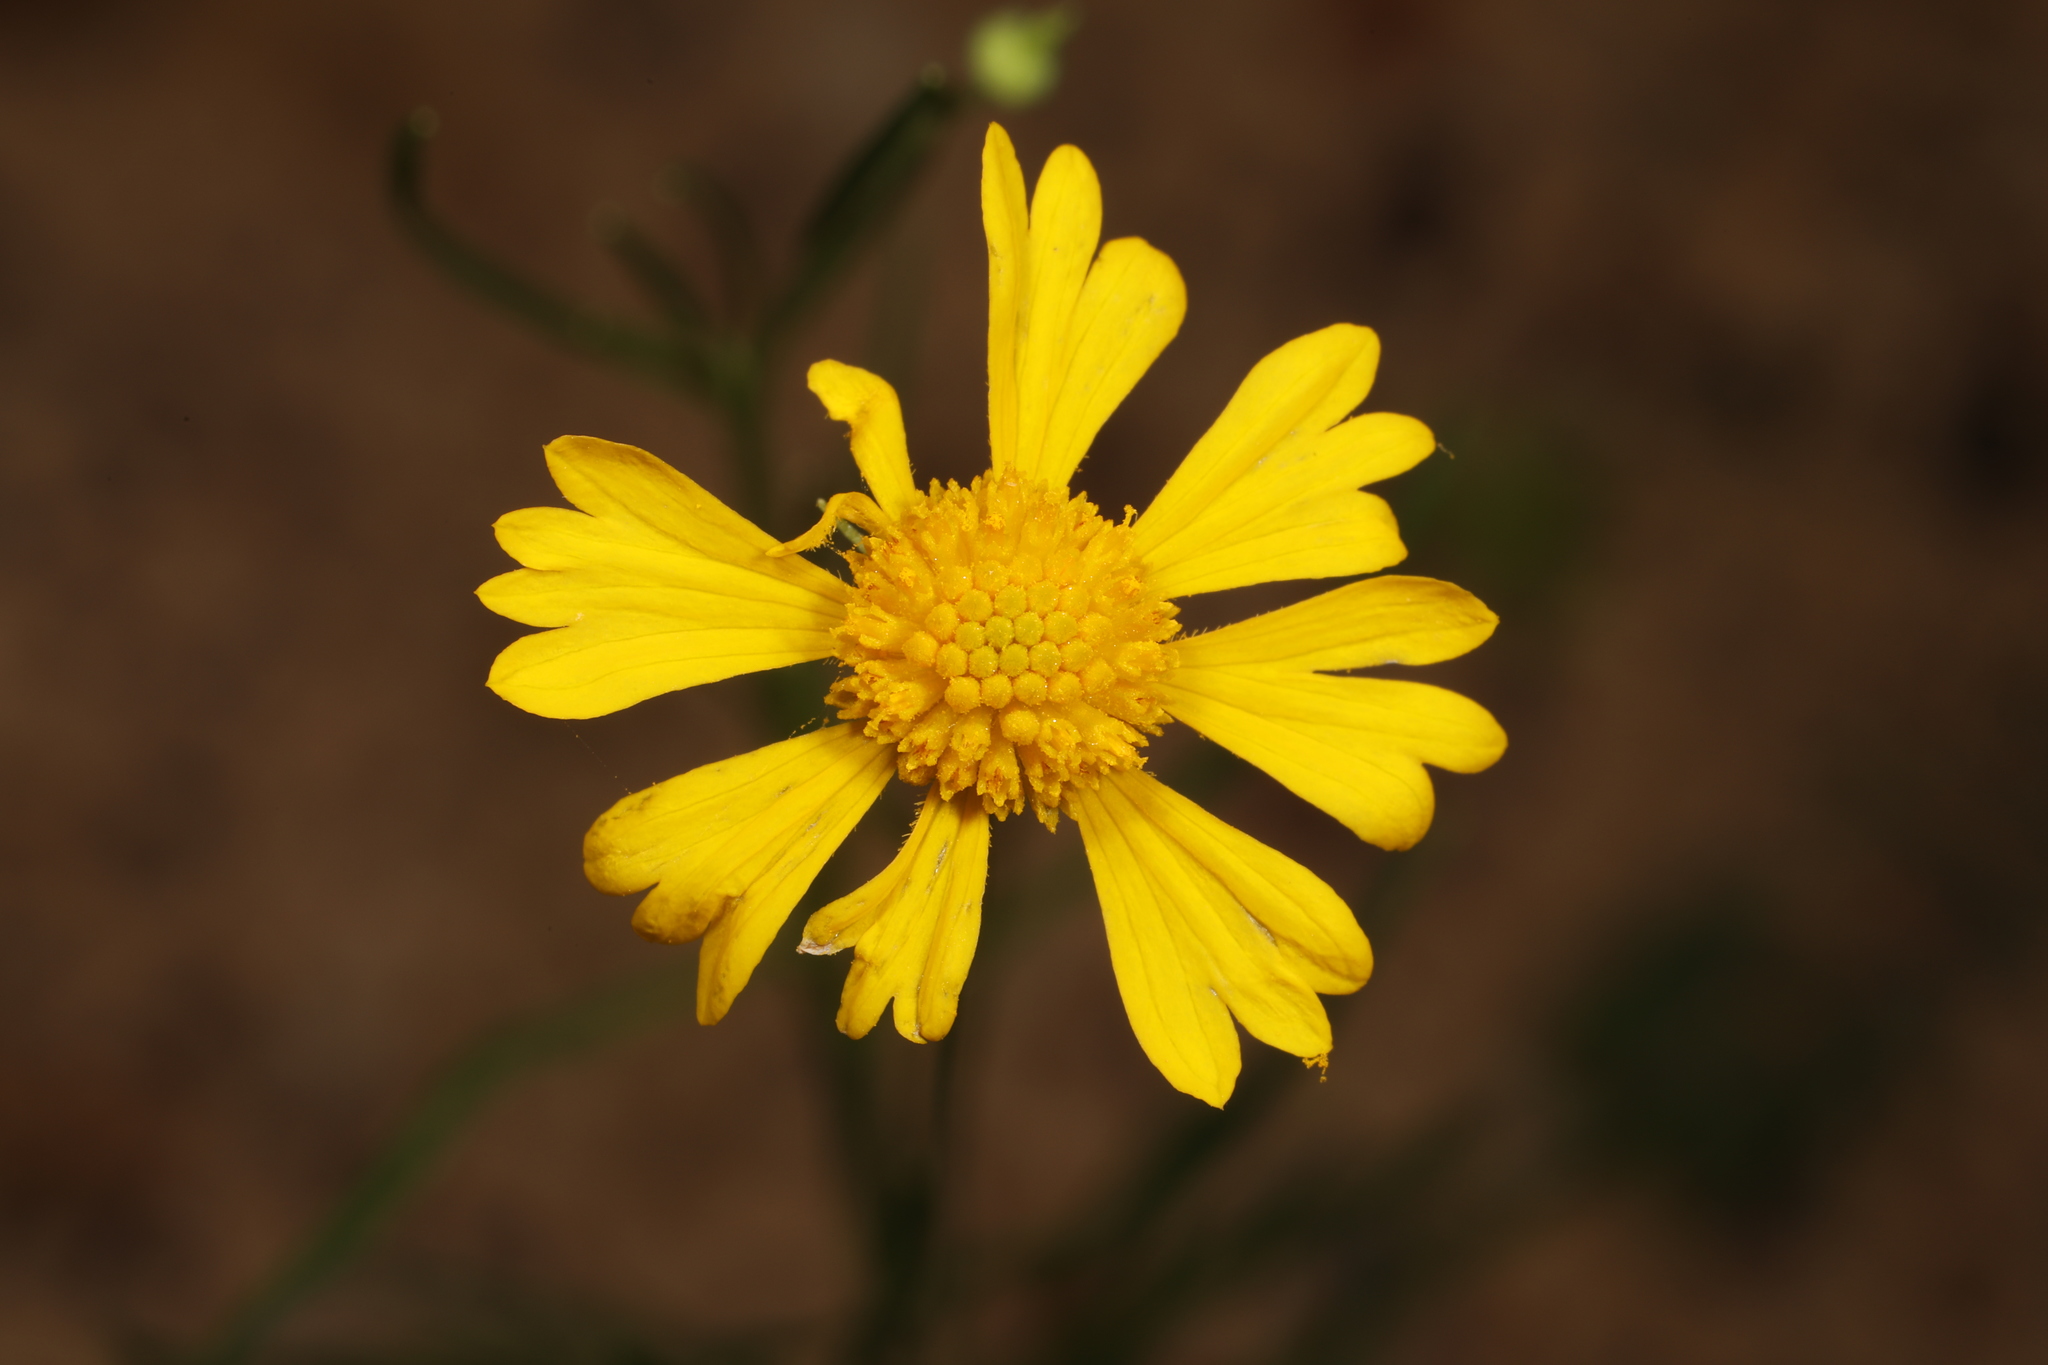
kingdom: Plantae
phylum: Tracheophyta
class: Magnoliopsida
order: Asterales
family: Asteraceae
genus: Helenium
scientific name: Helenium amarum
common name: Bitter sneezeweed
